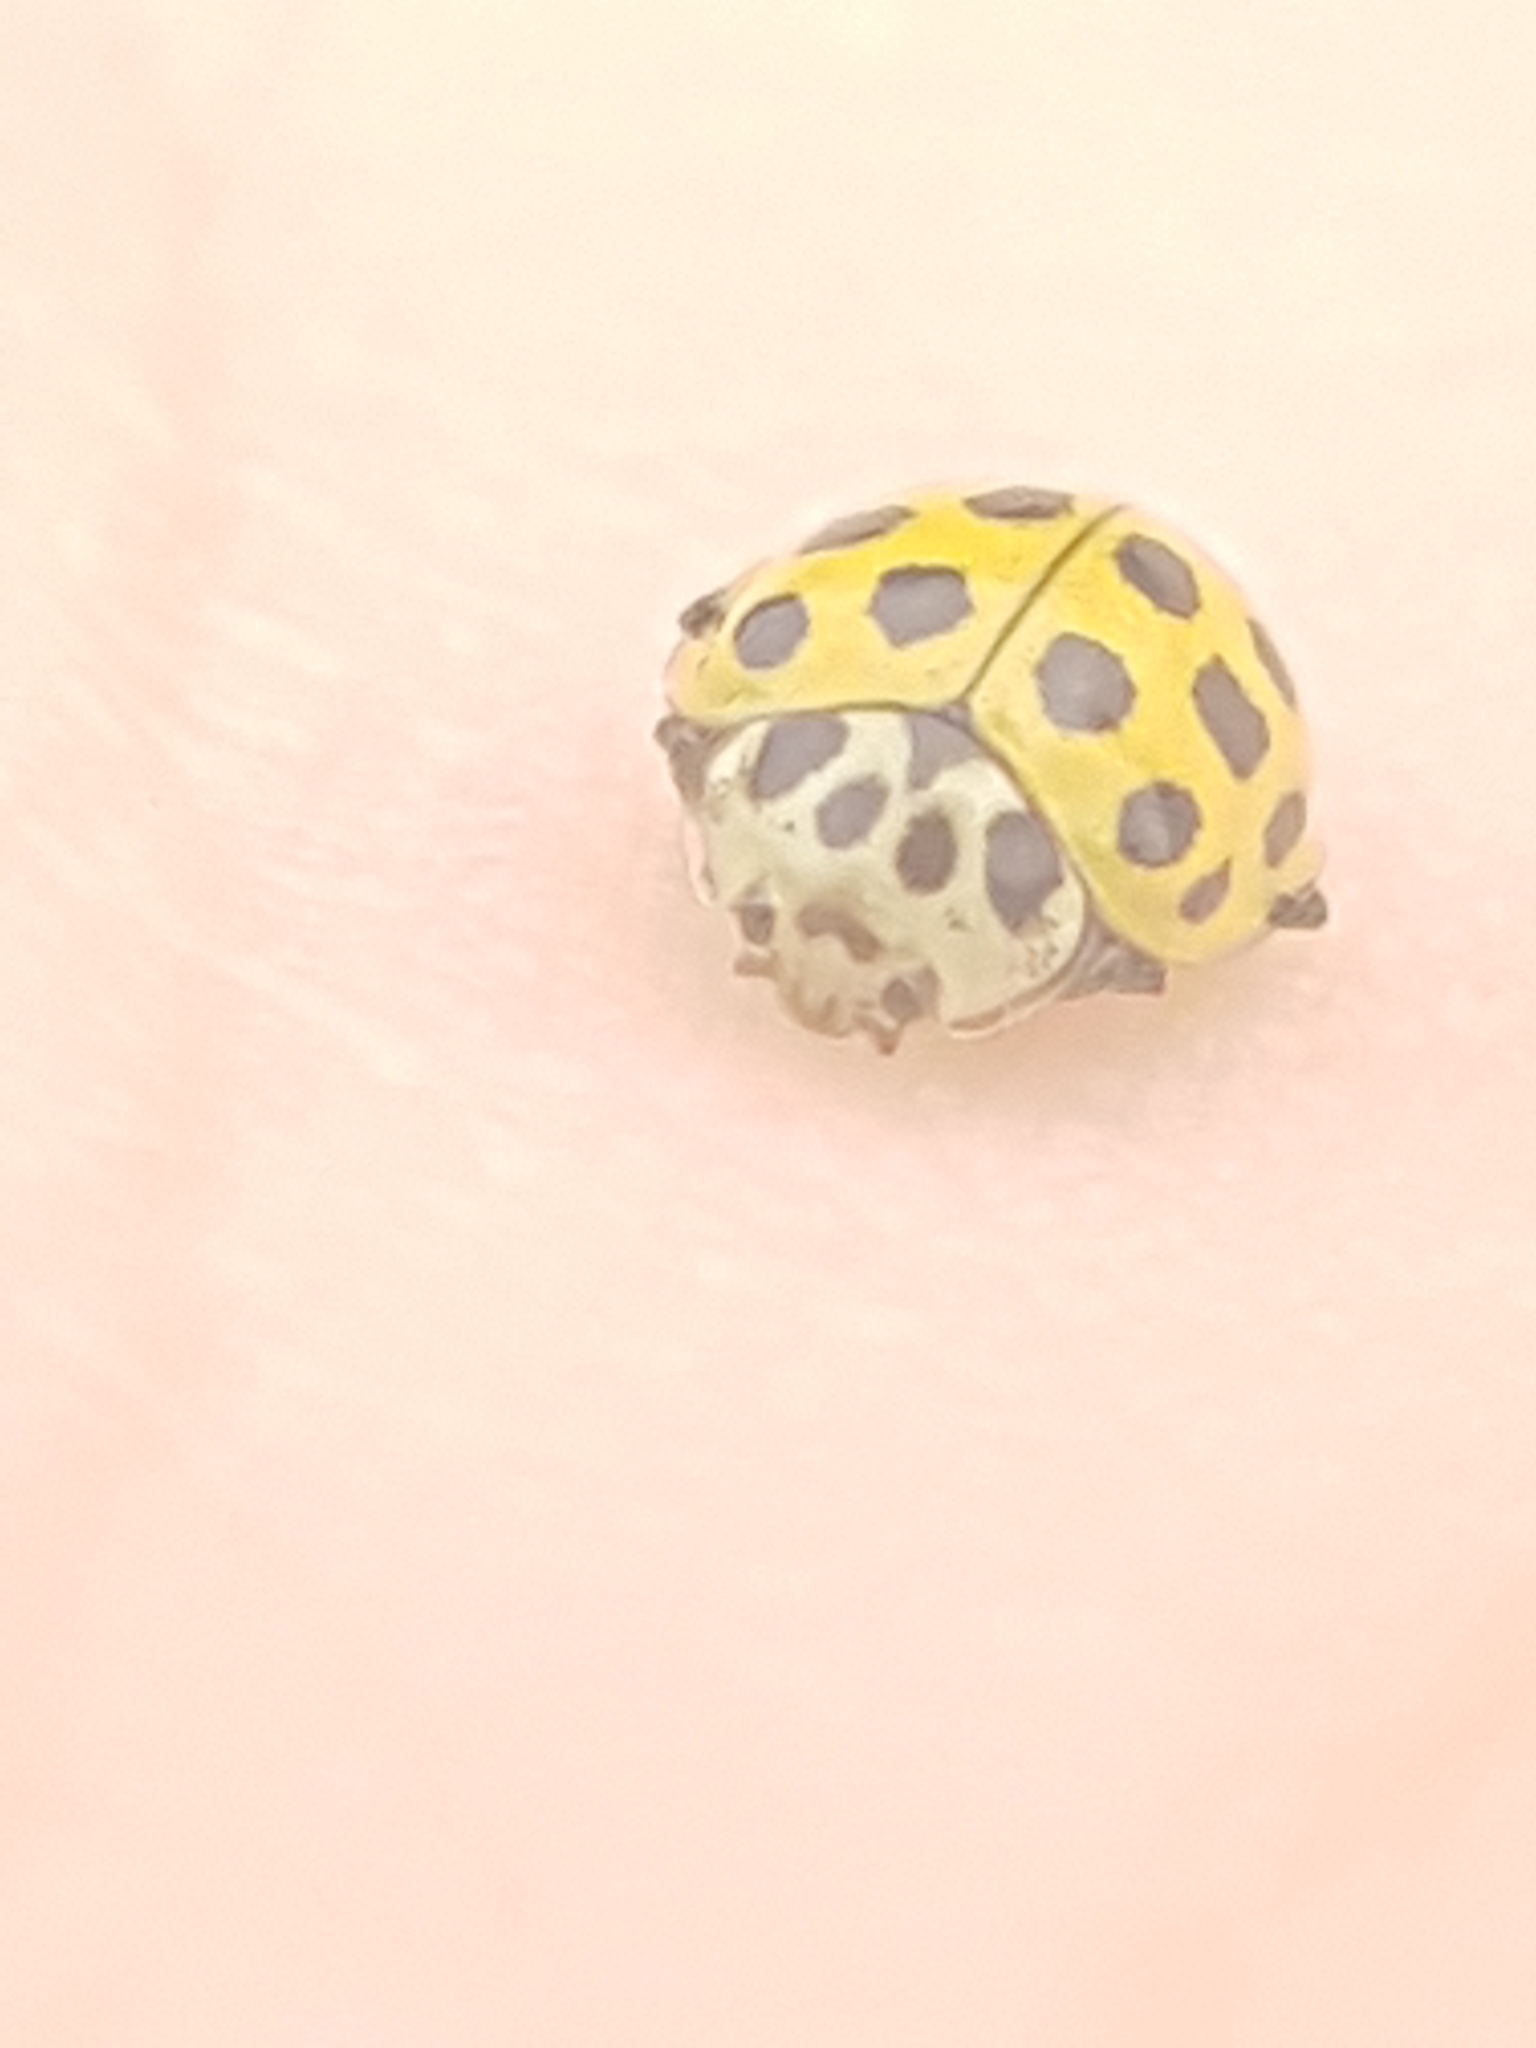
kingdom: Animalia
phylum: Arthropoda
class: Insecta
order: Coleoptera
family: Coccinellidae
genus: Psyllobora
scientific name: Psyllobora vigintiduopunctata
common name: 22-spot ladybird
